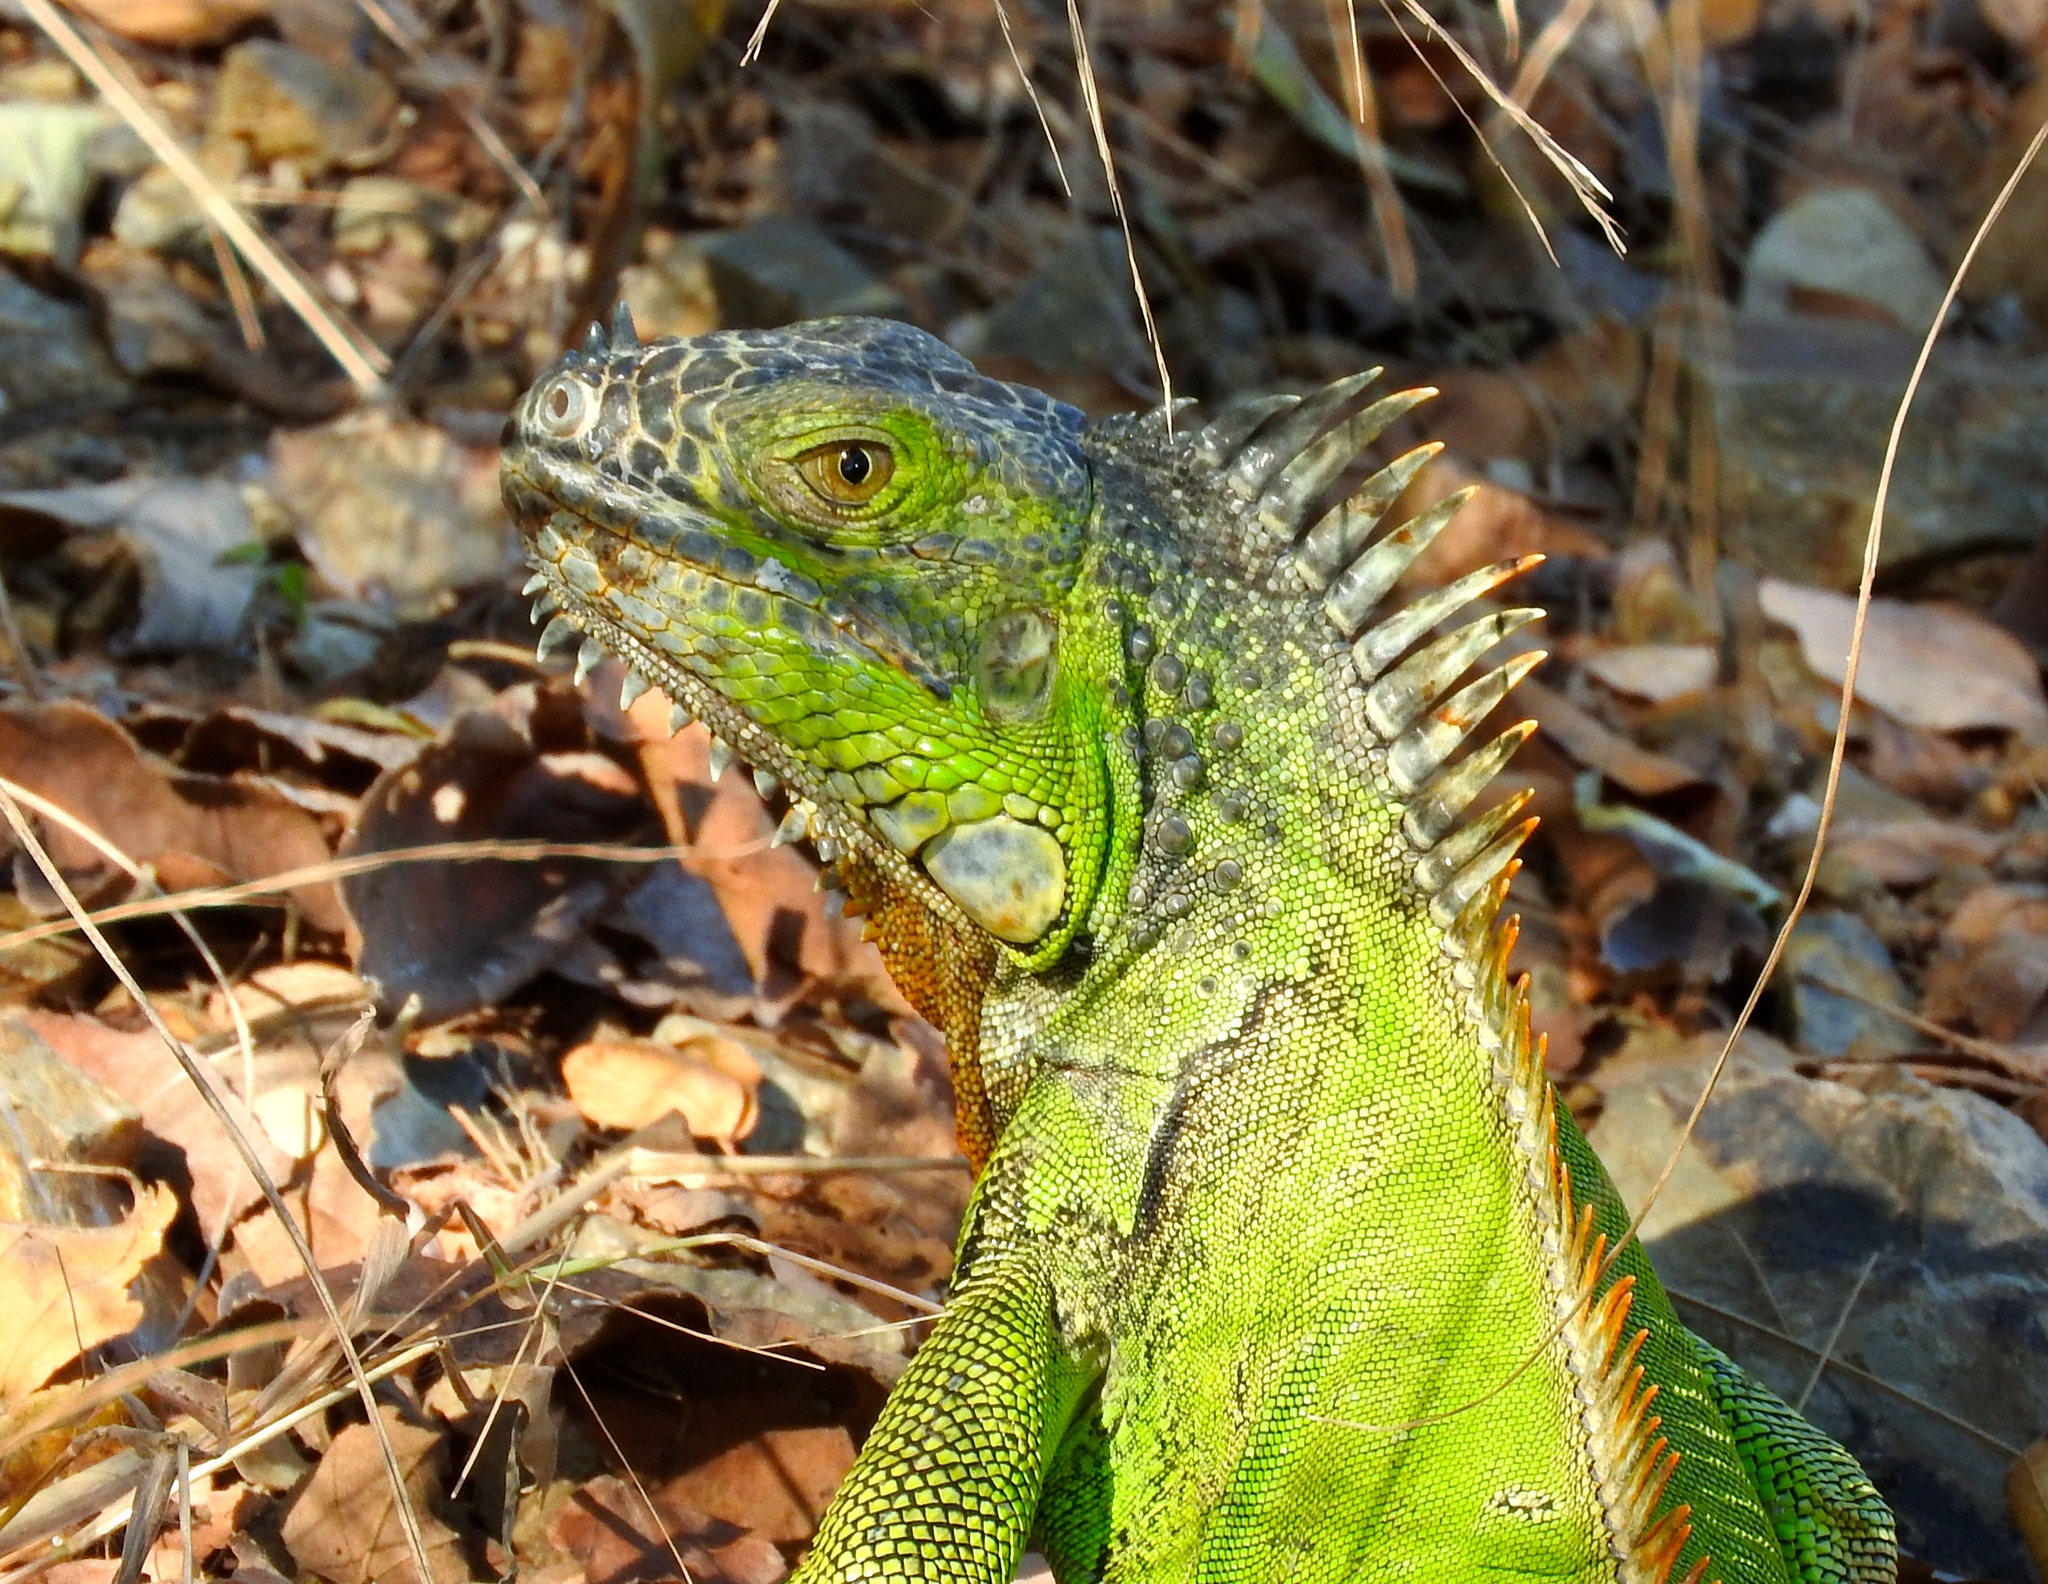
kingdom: Animalia
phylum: Chordata
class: Squamata
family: Iguanidae
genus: Iguana
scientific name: Iguana iguana
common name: Green iguana
